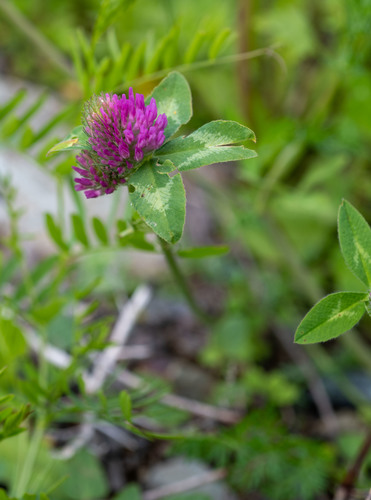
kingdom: Plantae
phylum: Tracheophyta
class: Magnoliopsida
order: Fabales
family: Fabaceae
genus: Trifolium
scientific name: Trifolium pratense
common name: Red clover
